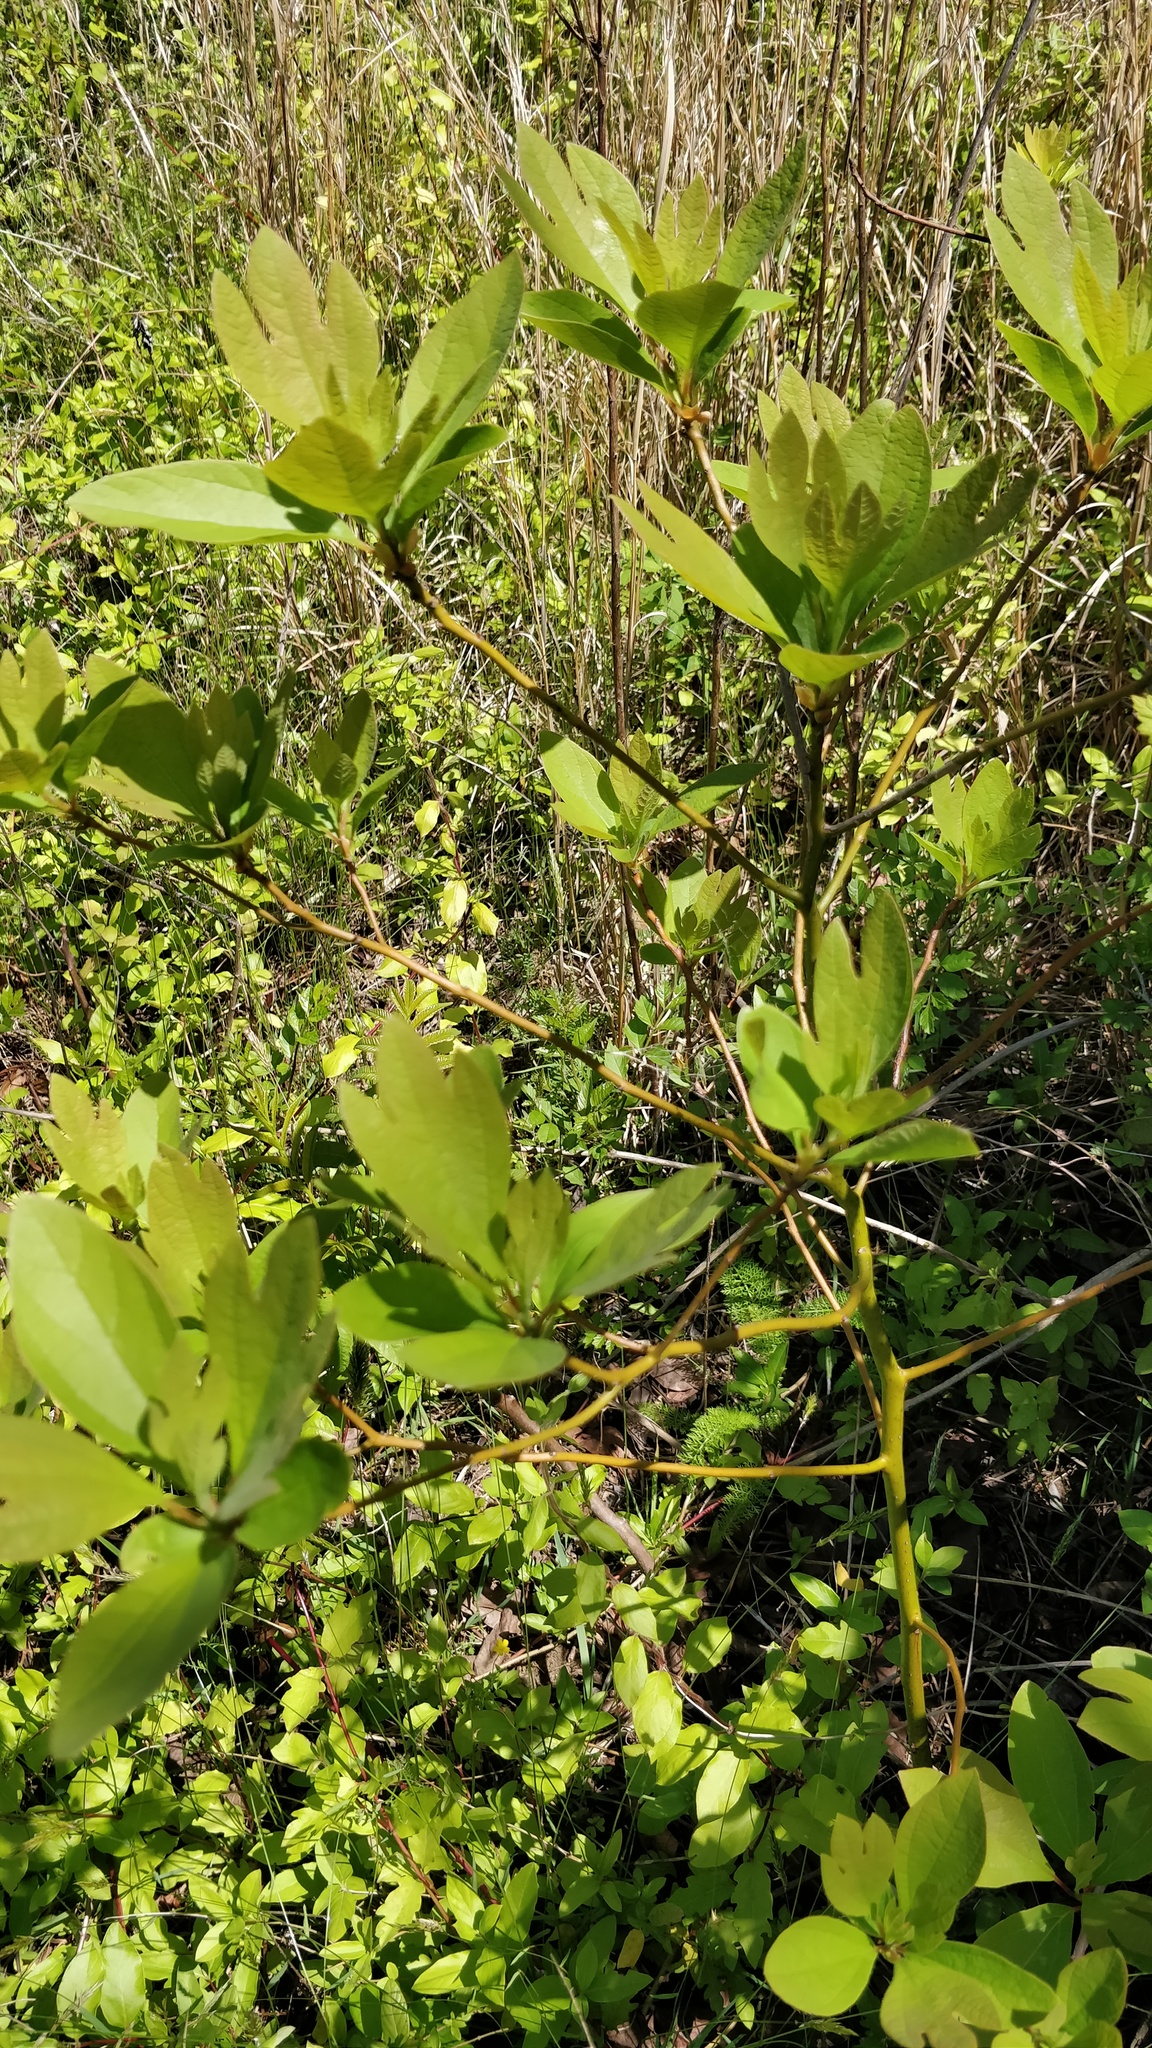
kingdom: Plantae
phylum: Tracheophyta
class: Magnoliopsida
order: Laurales
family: Lauraceae
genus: Sassafras
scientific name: Sassafras albidum
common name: Sassafras
